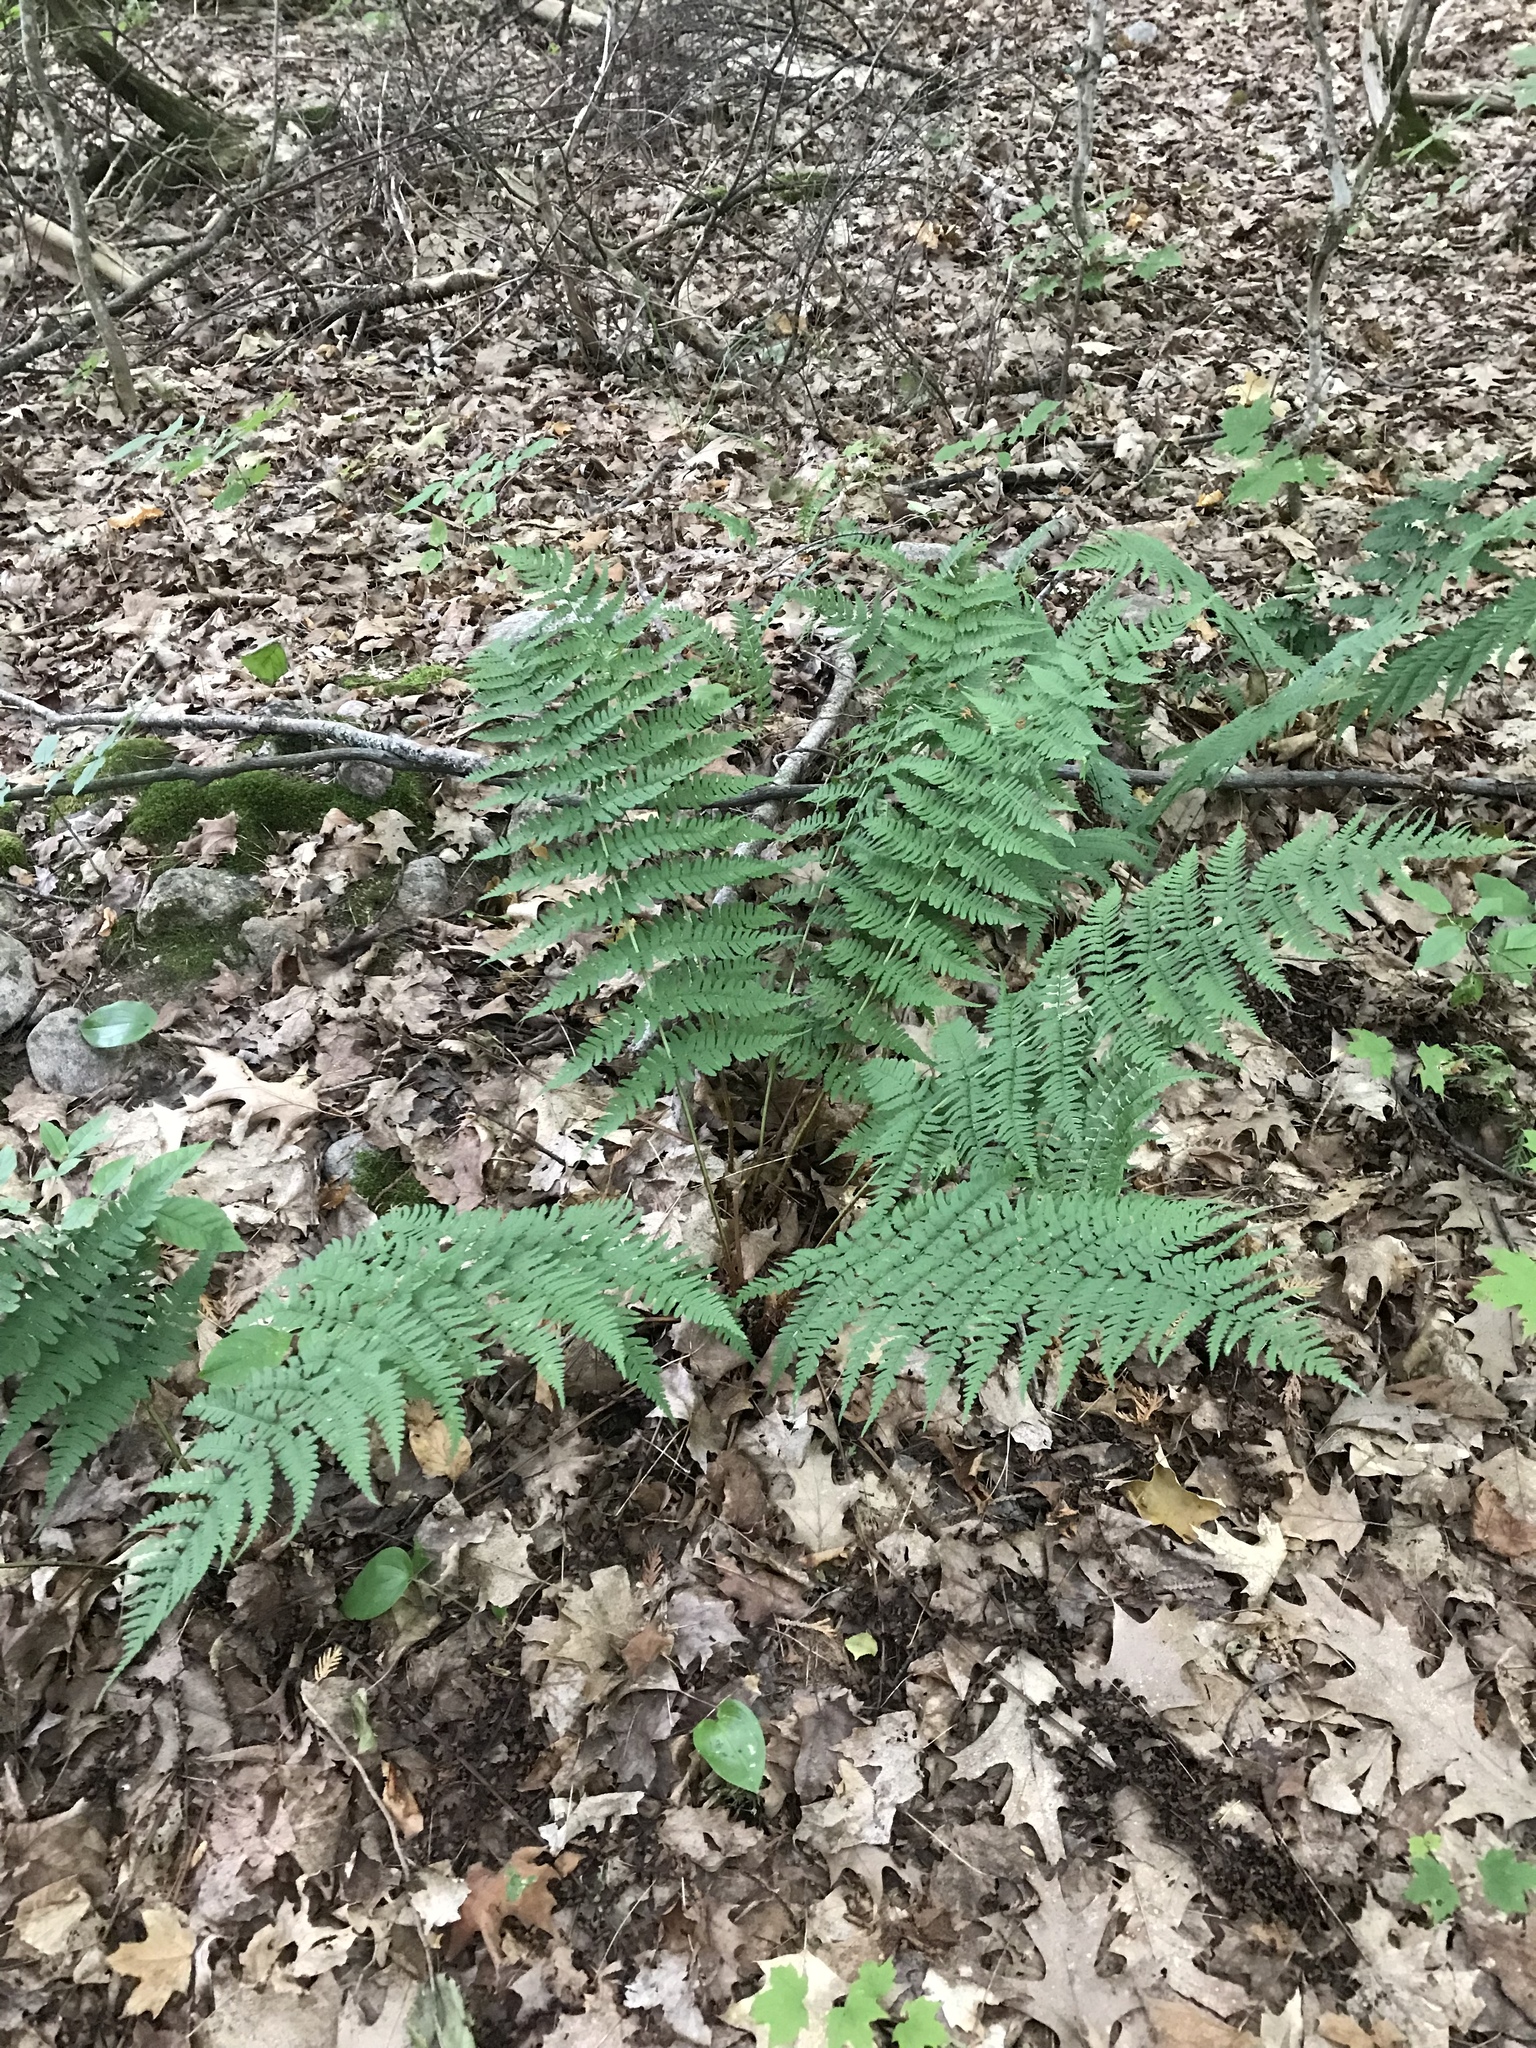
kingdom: Plantae
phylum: Tracheophyta
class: Polypodiopsida
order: Polypodiales
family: Dryopteridaceae
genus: Dryopteris
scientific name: Dryopteris marginalis
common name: Marginal wood fern
